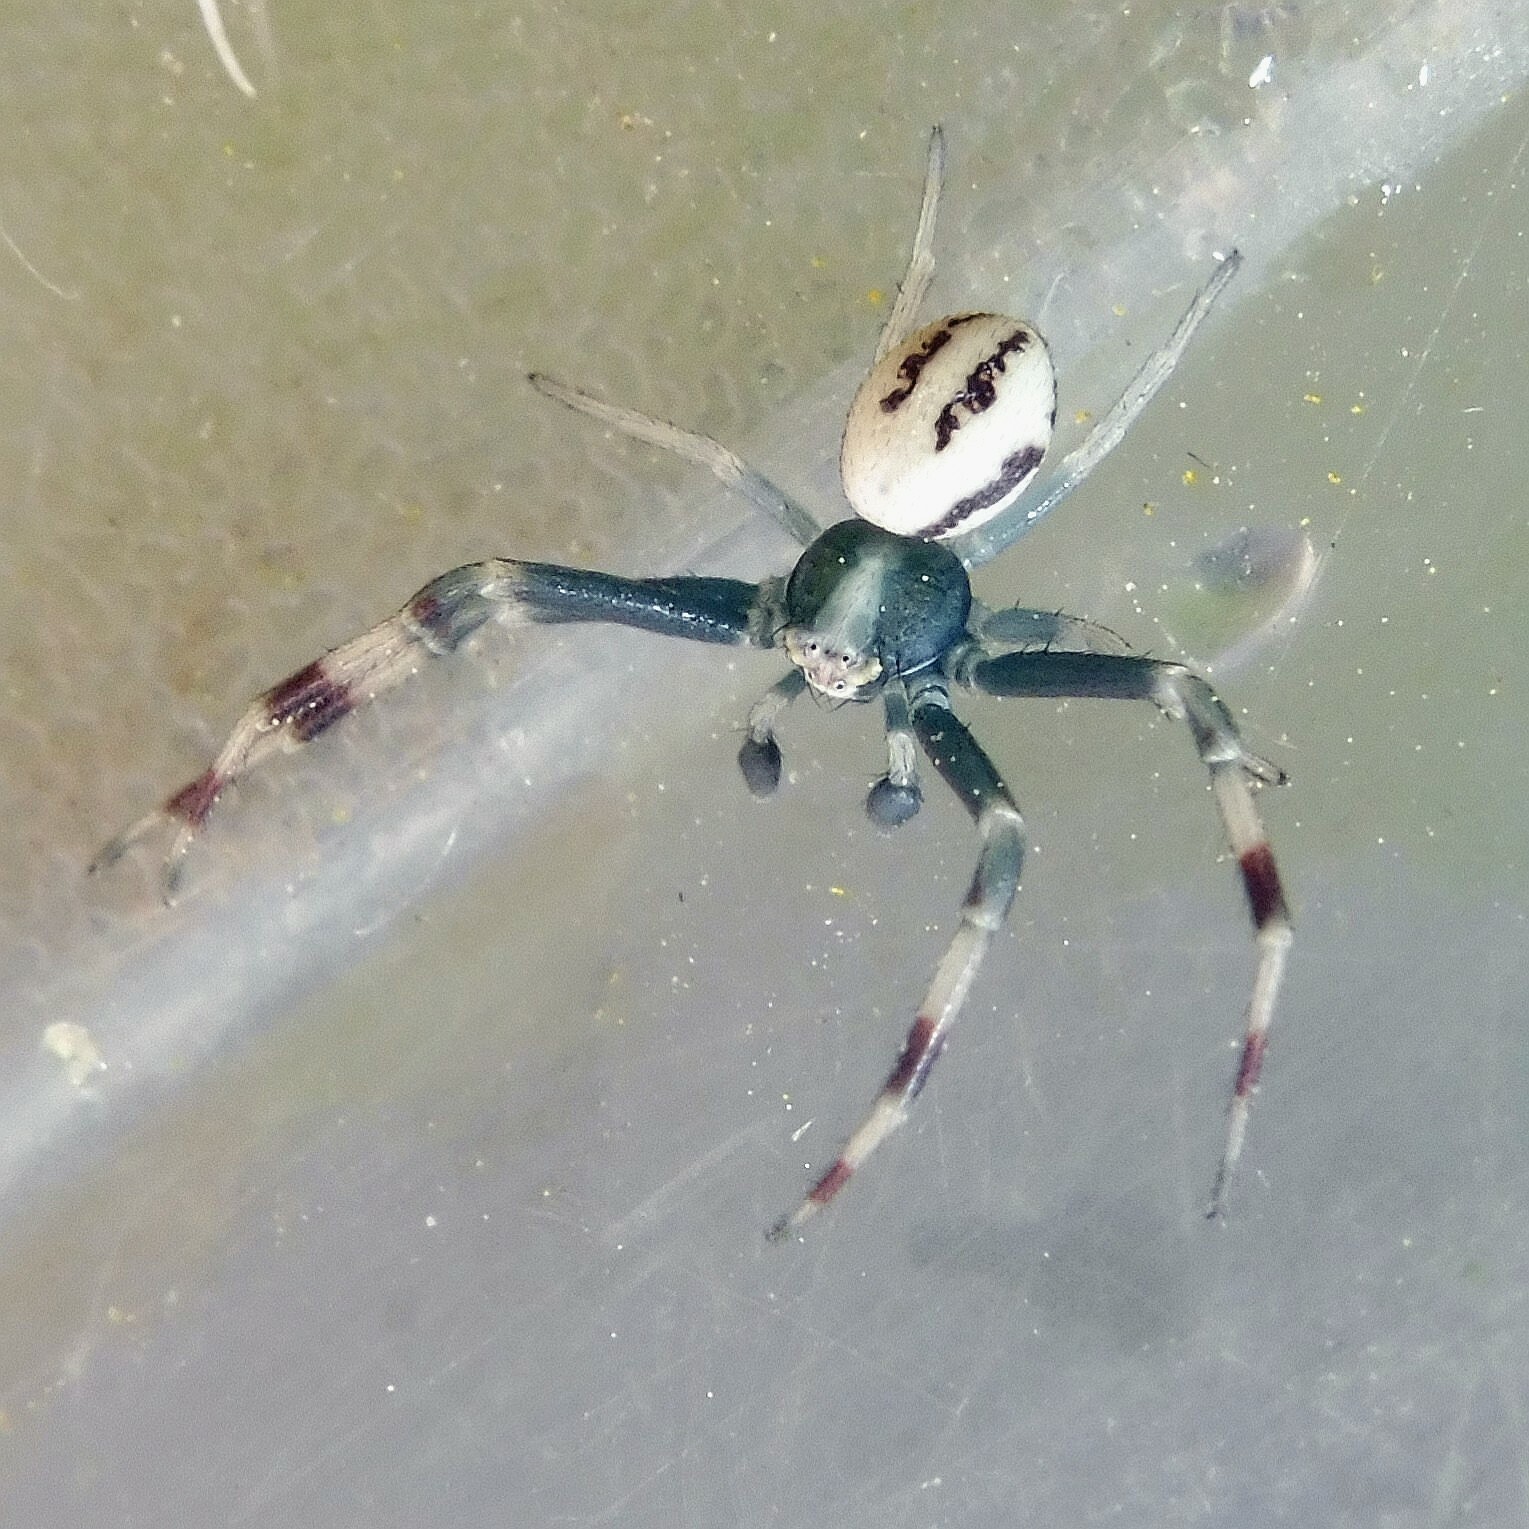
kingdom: Animalia
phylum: Arthropoda
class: Arachnida
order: Araneae
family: Thomisidae
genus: Misumena
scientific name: Misumena vatia
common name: Goldenrod crab spider
